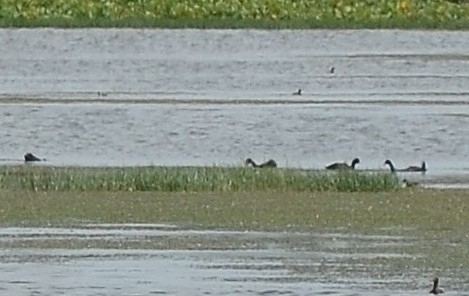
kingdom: Animalia
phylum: Chordata
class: Aves
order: Gruiformes
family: Rallidae
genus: Fulica
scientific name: Fulica atra
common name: Eurasian coot
